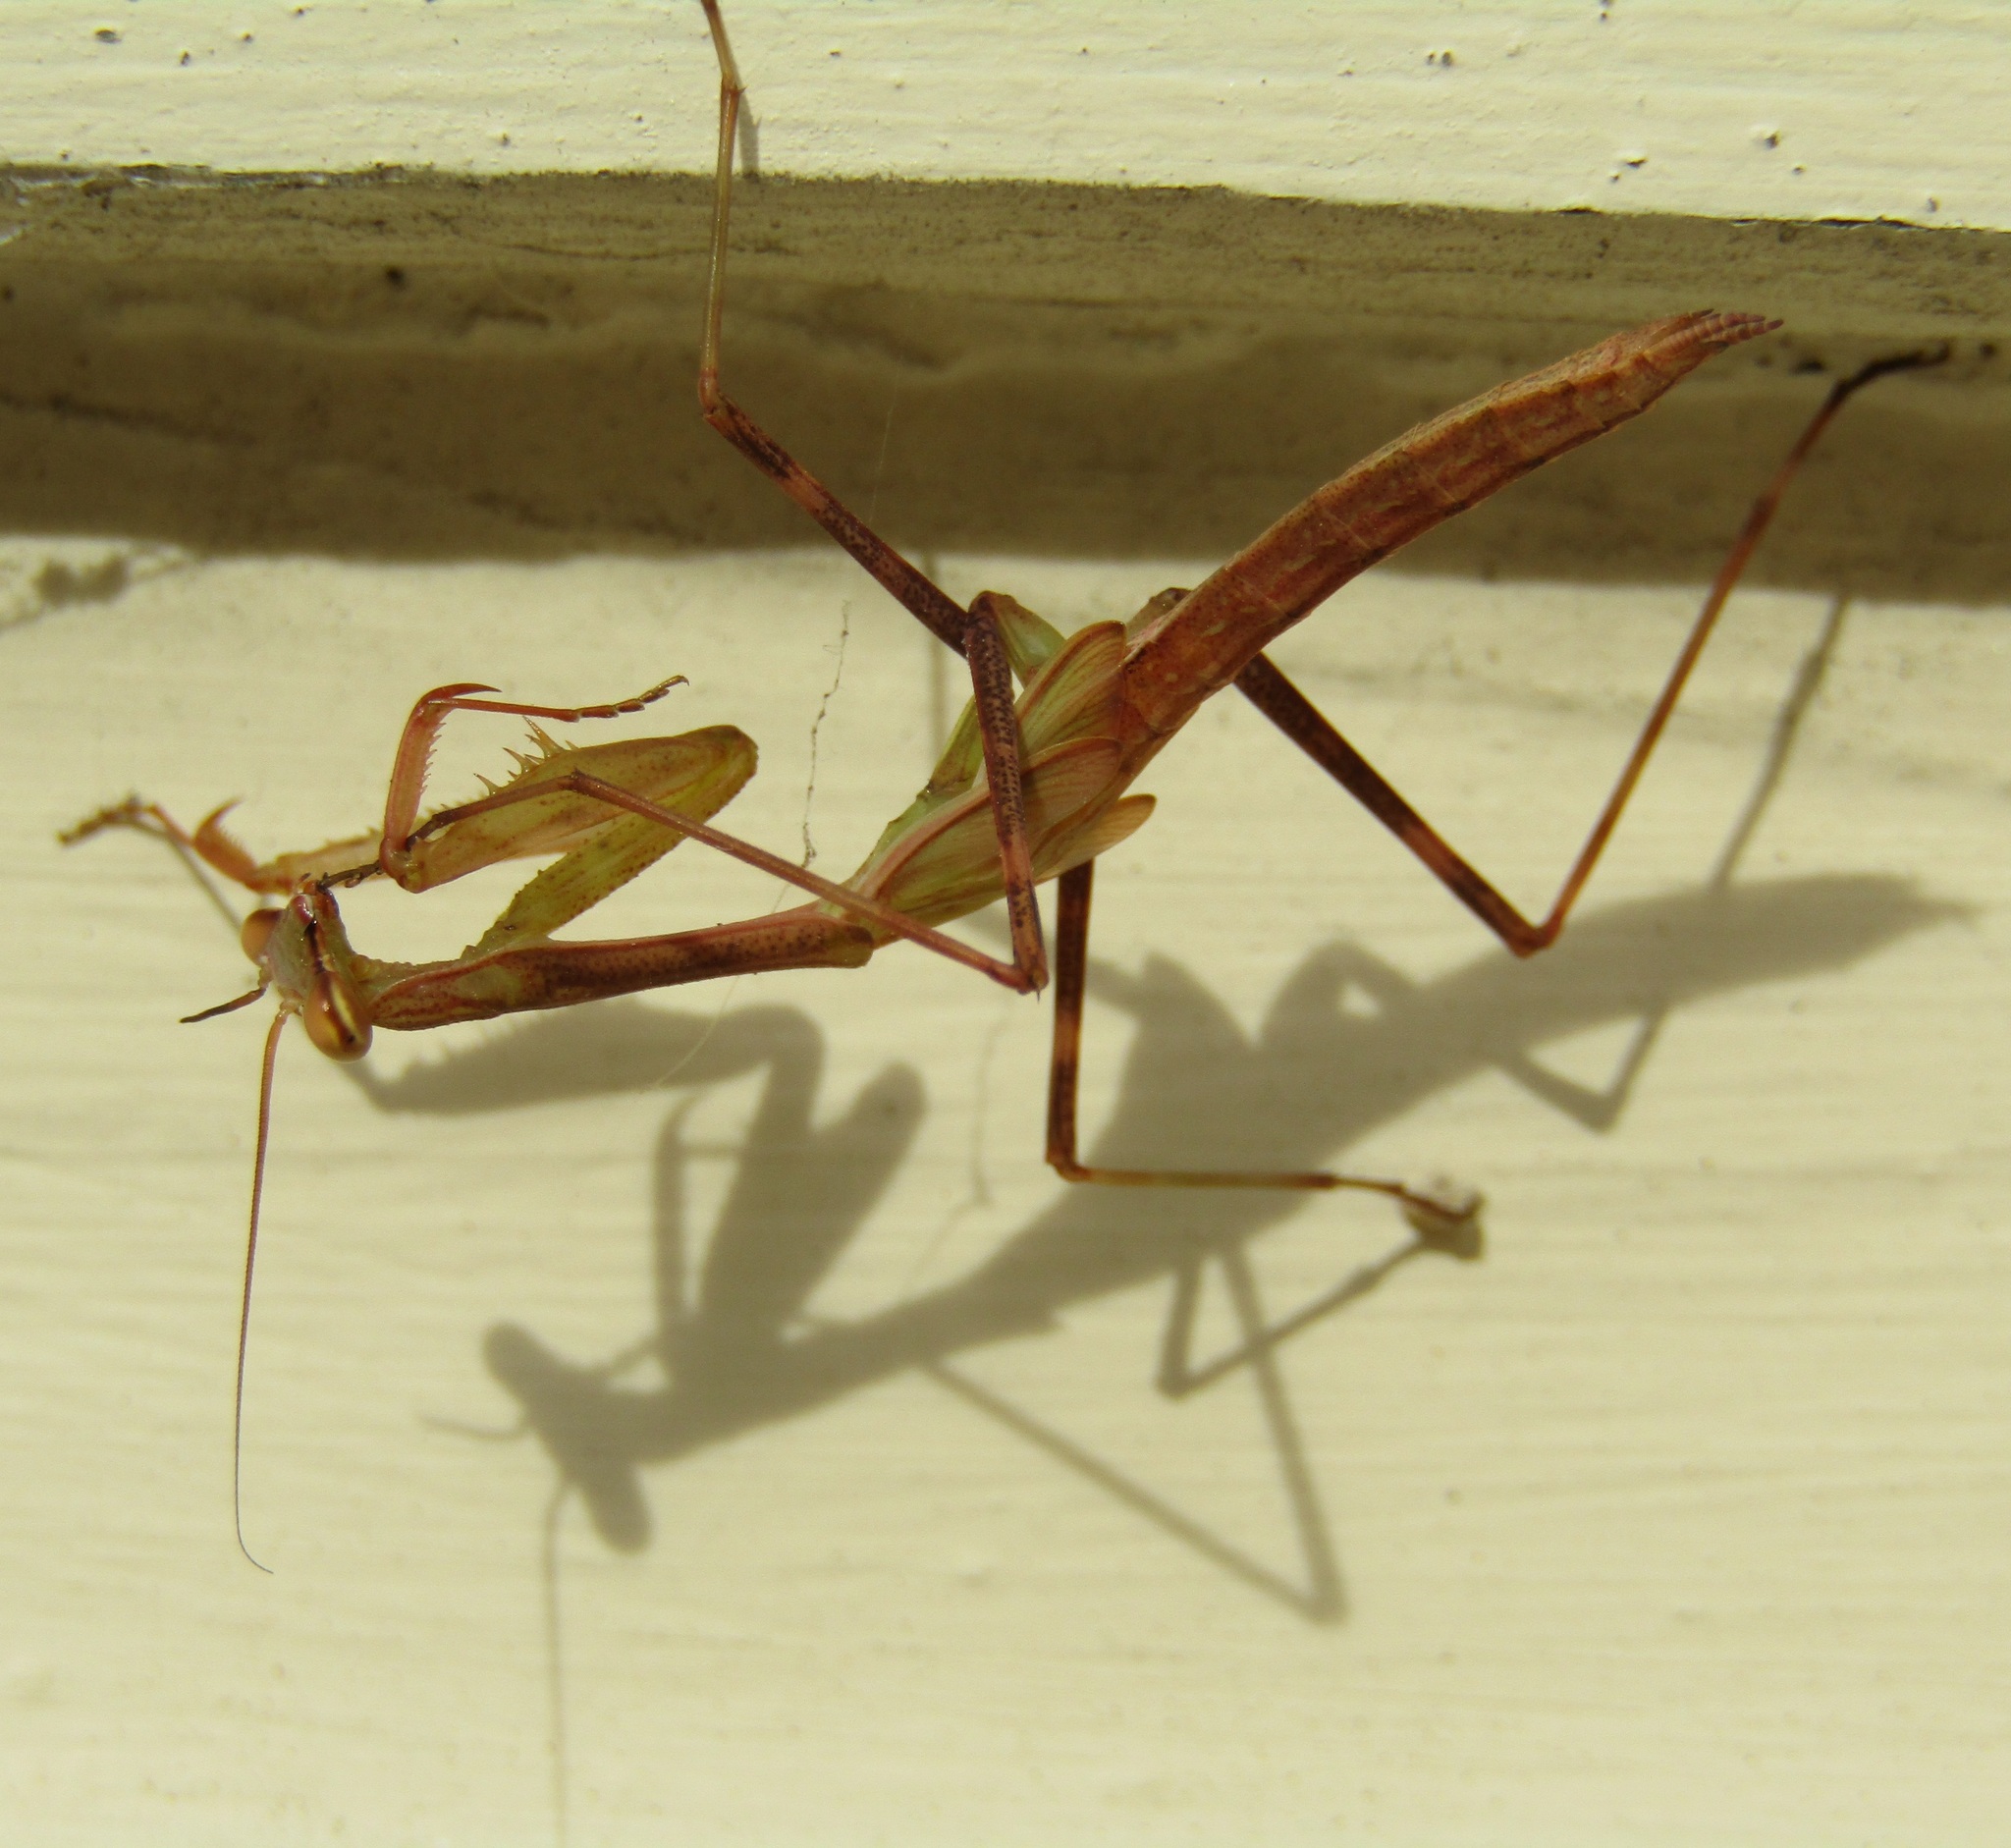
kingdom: Animalia
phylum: Arthropoda
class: Insecta
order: Mantodea
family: Miomantidae
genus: Miomantis
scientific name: Miomantis caffra
